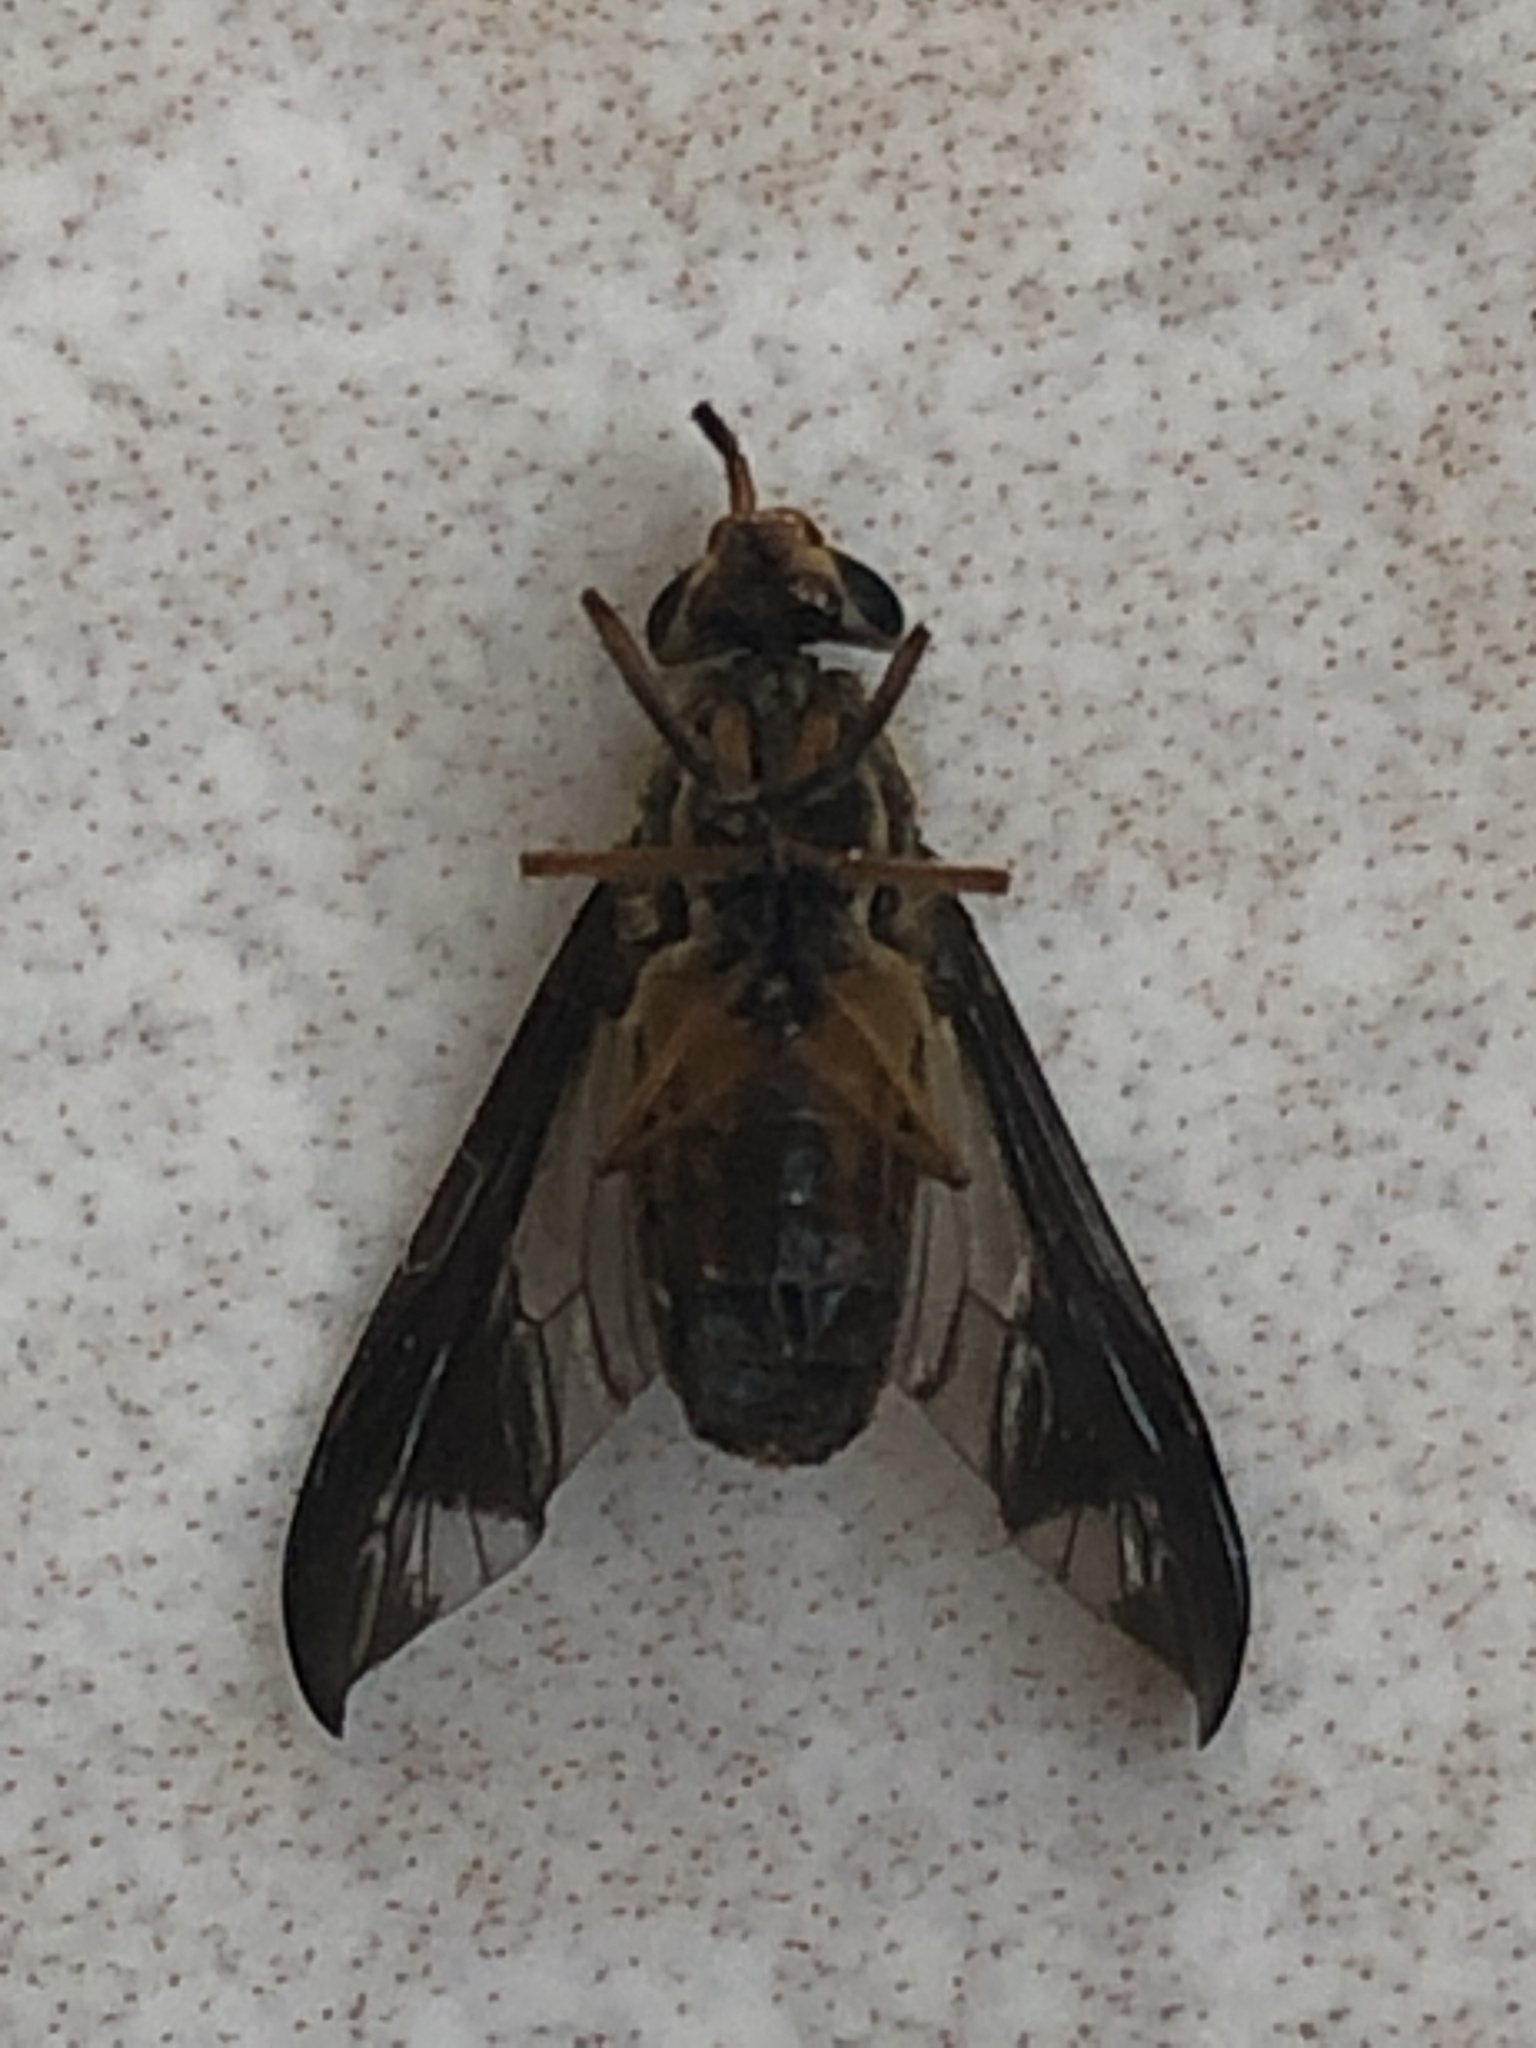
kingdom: Animalia
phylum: Arthropoda
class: Insecta
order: Diptera
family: Tabanidae
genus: Chrysops
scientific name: Chrysops macquarti
